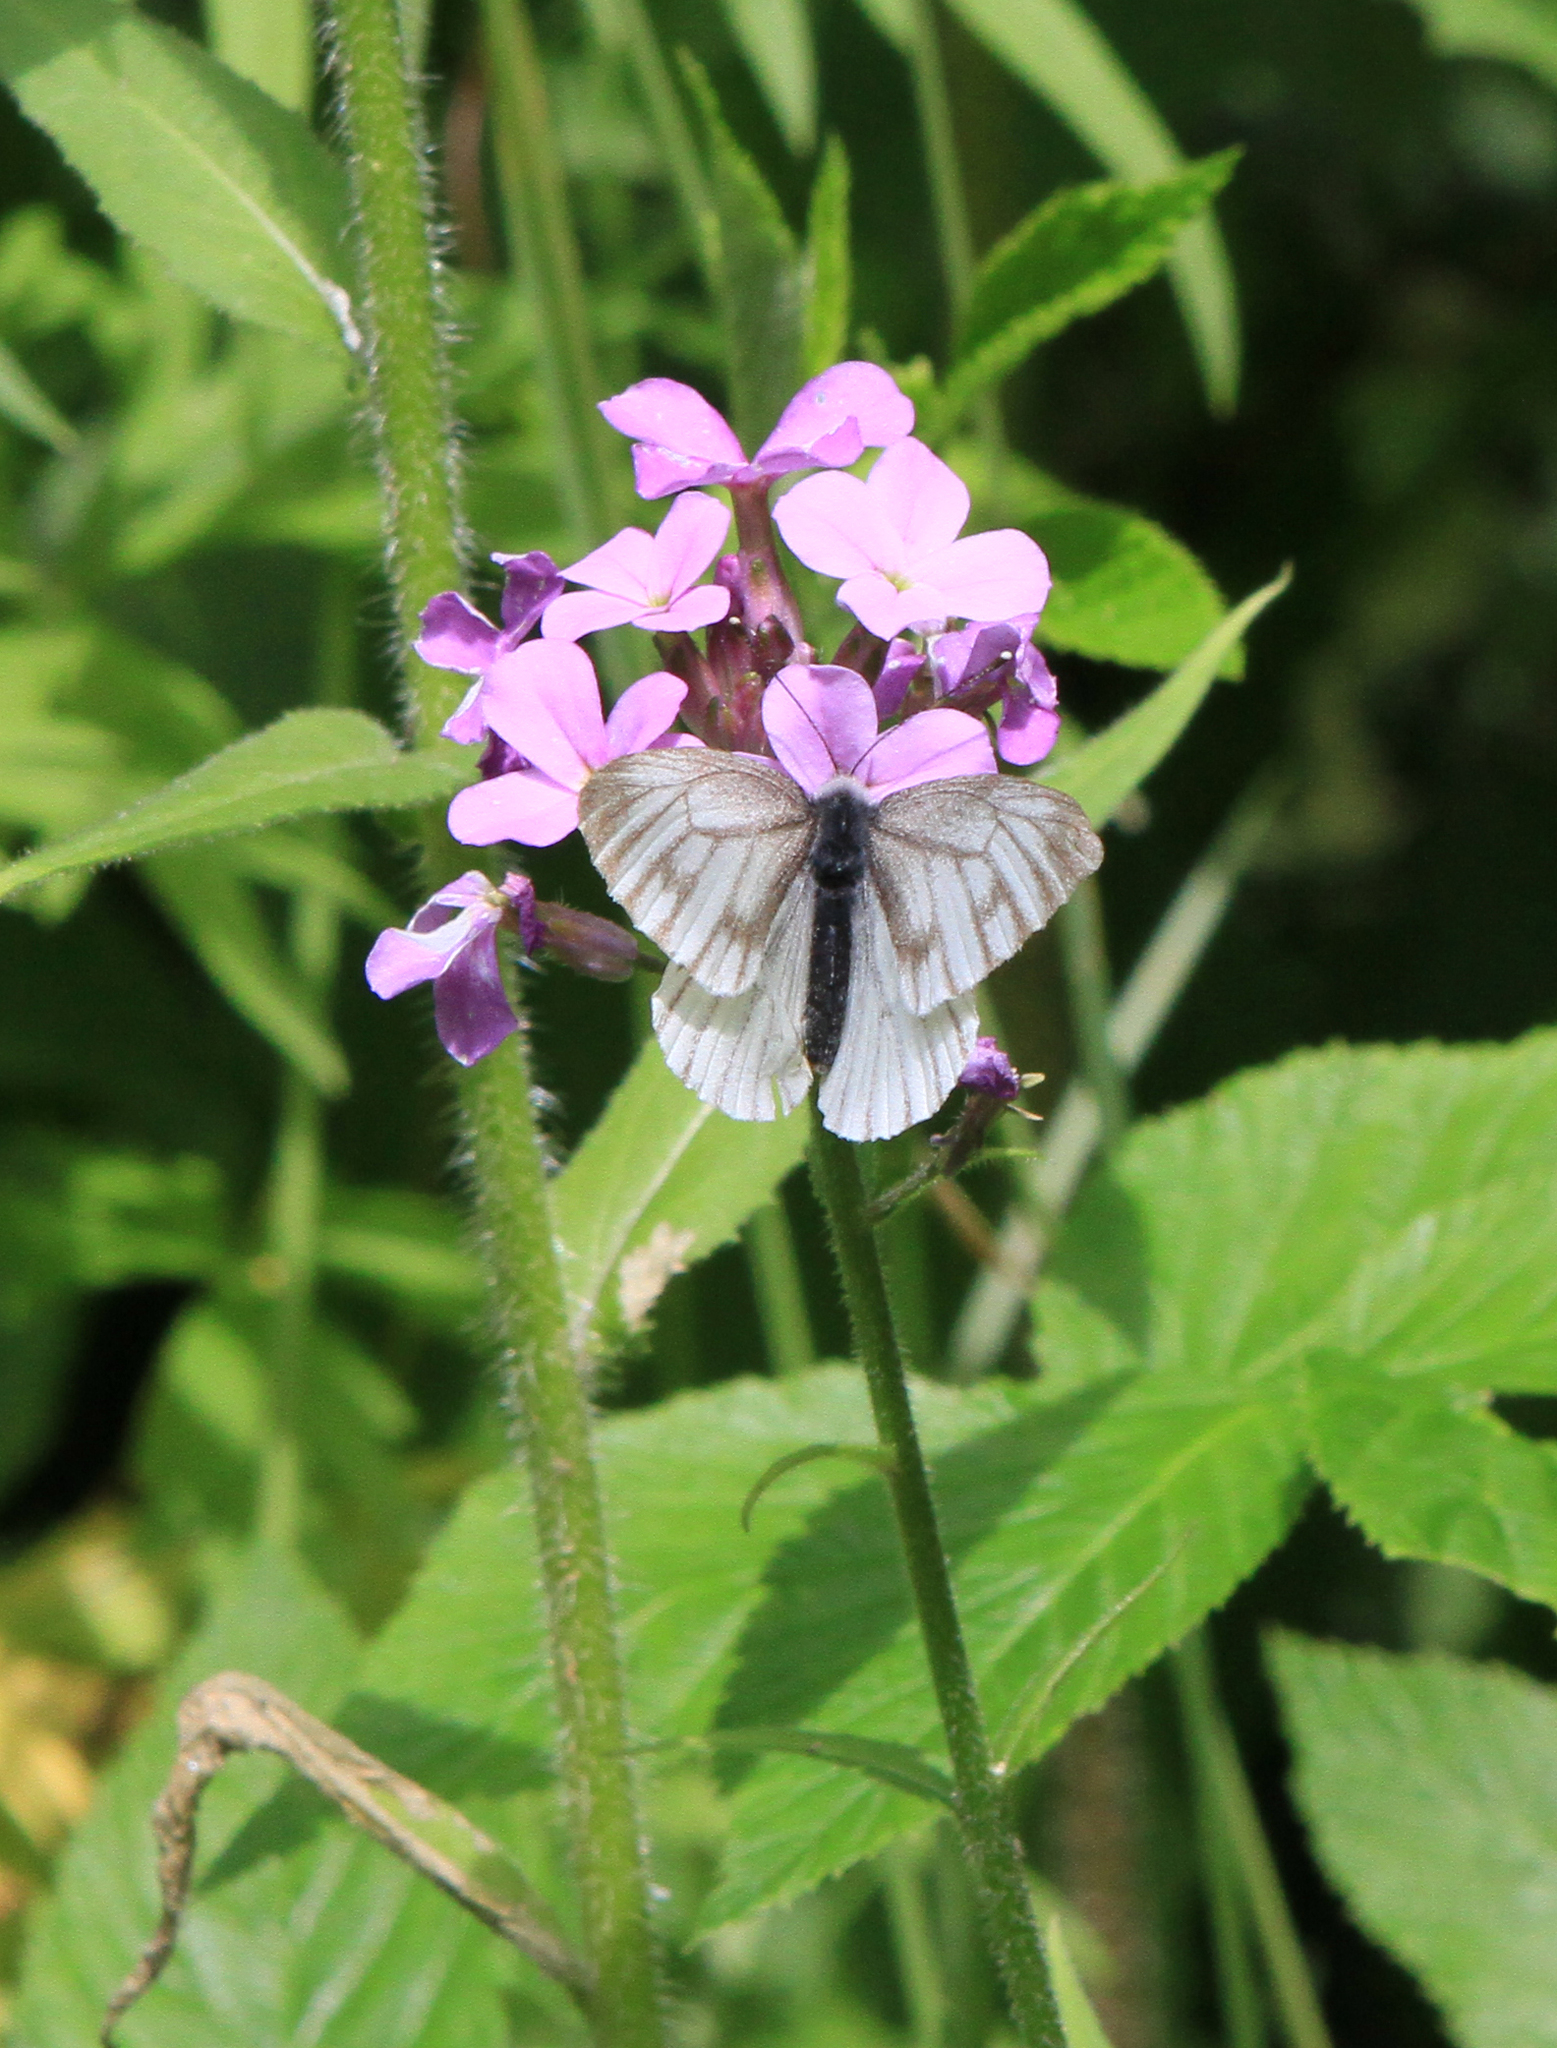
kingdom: Plantae
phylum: Tracheophyta
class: Magnoliopsida
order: Brassicales
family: Brassicaceae
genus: Hesperis
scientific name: Hesperis sibirica
